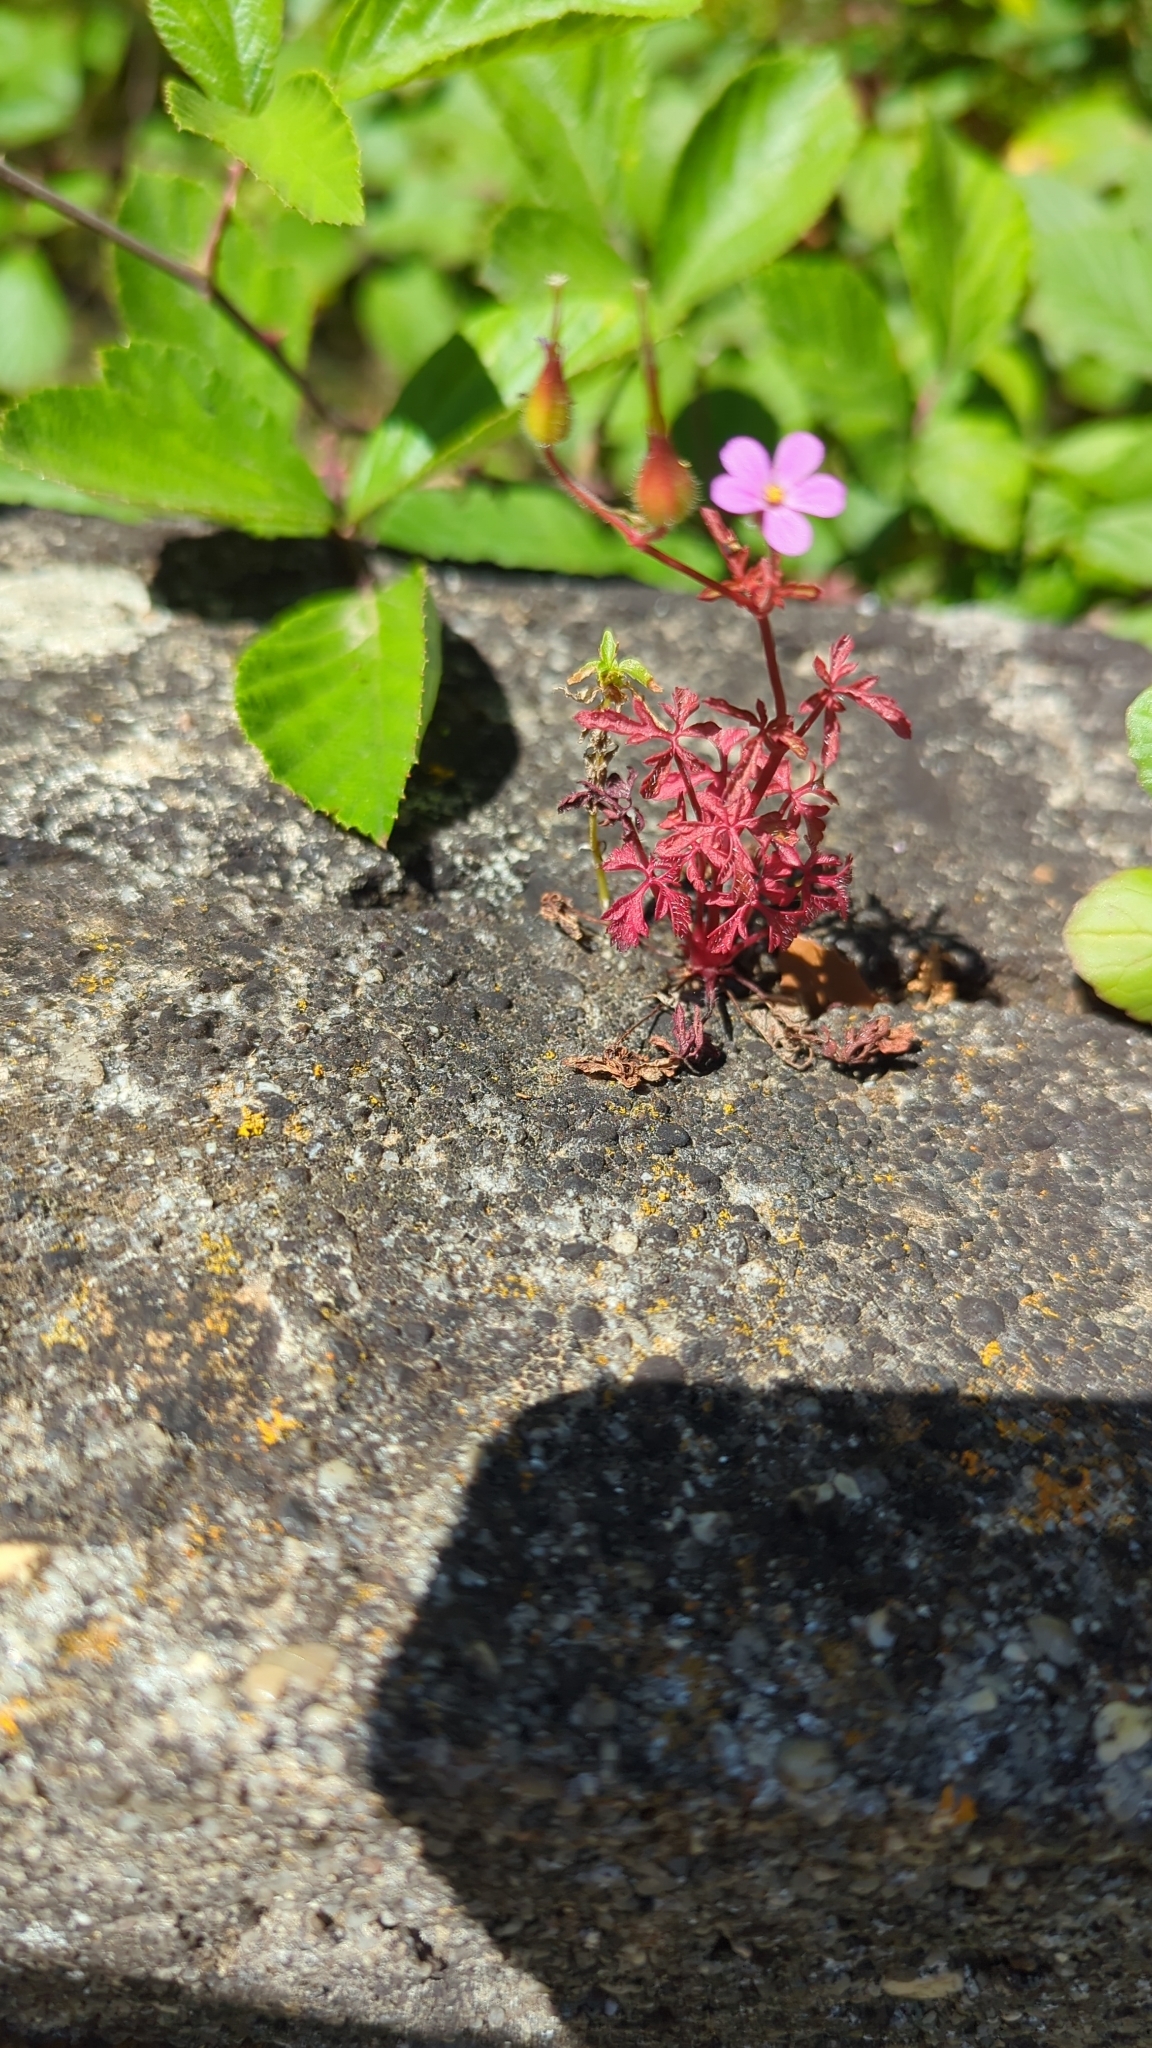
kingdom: Plantae
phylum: Tracheophyta
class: Magnoliopsida
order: Geraniales
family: Geraniaceae
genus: Geranium
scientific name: Geranium purpureum
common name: Little-robin
